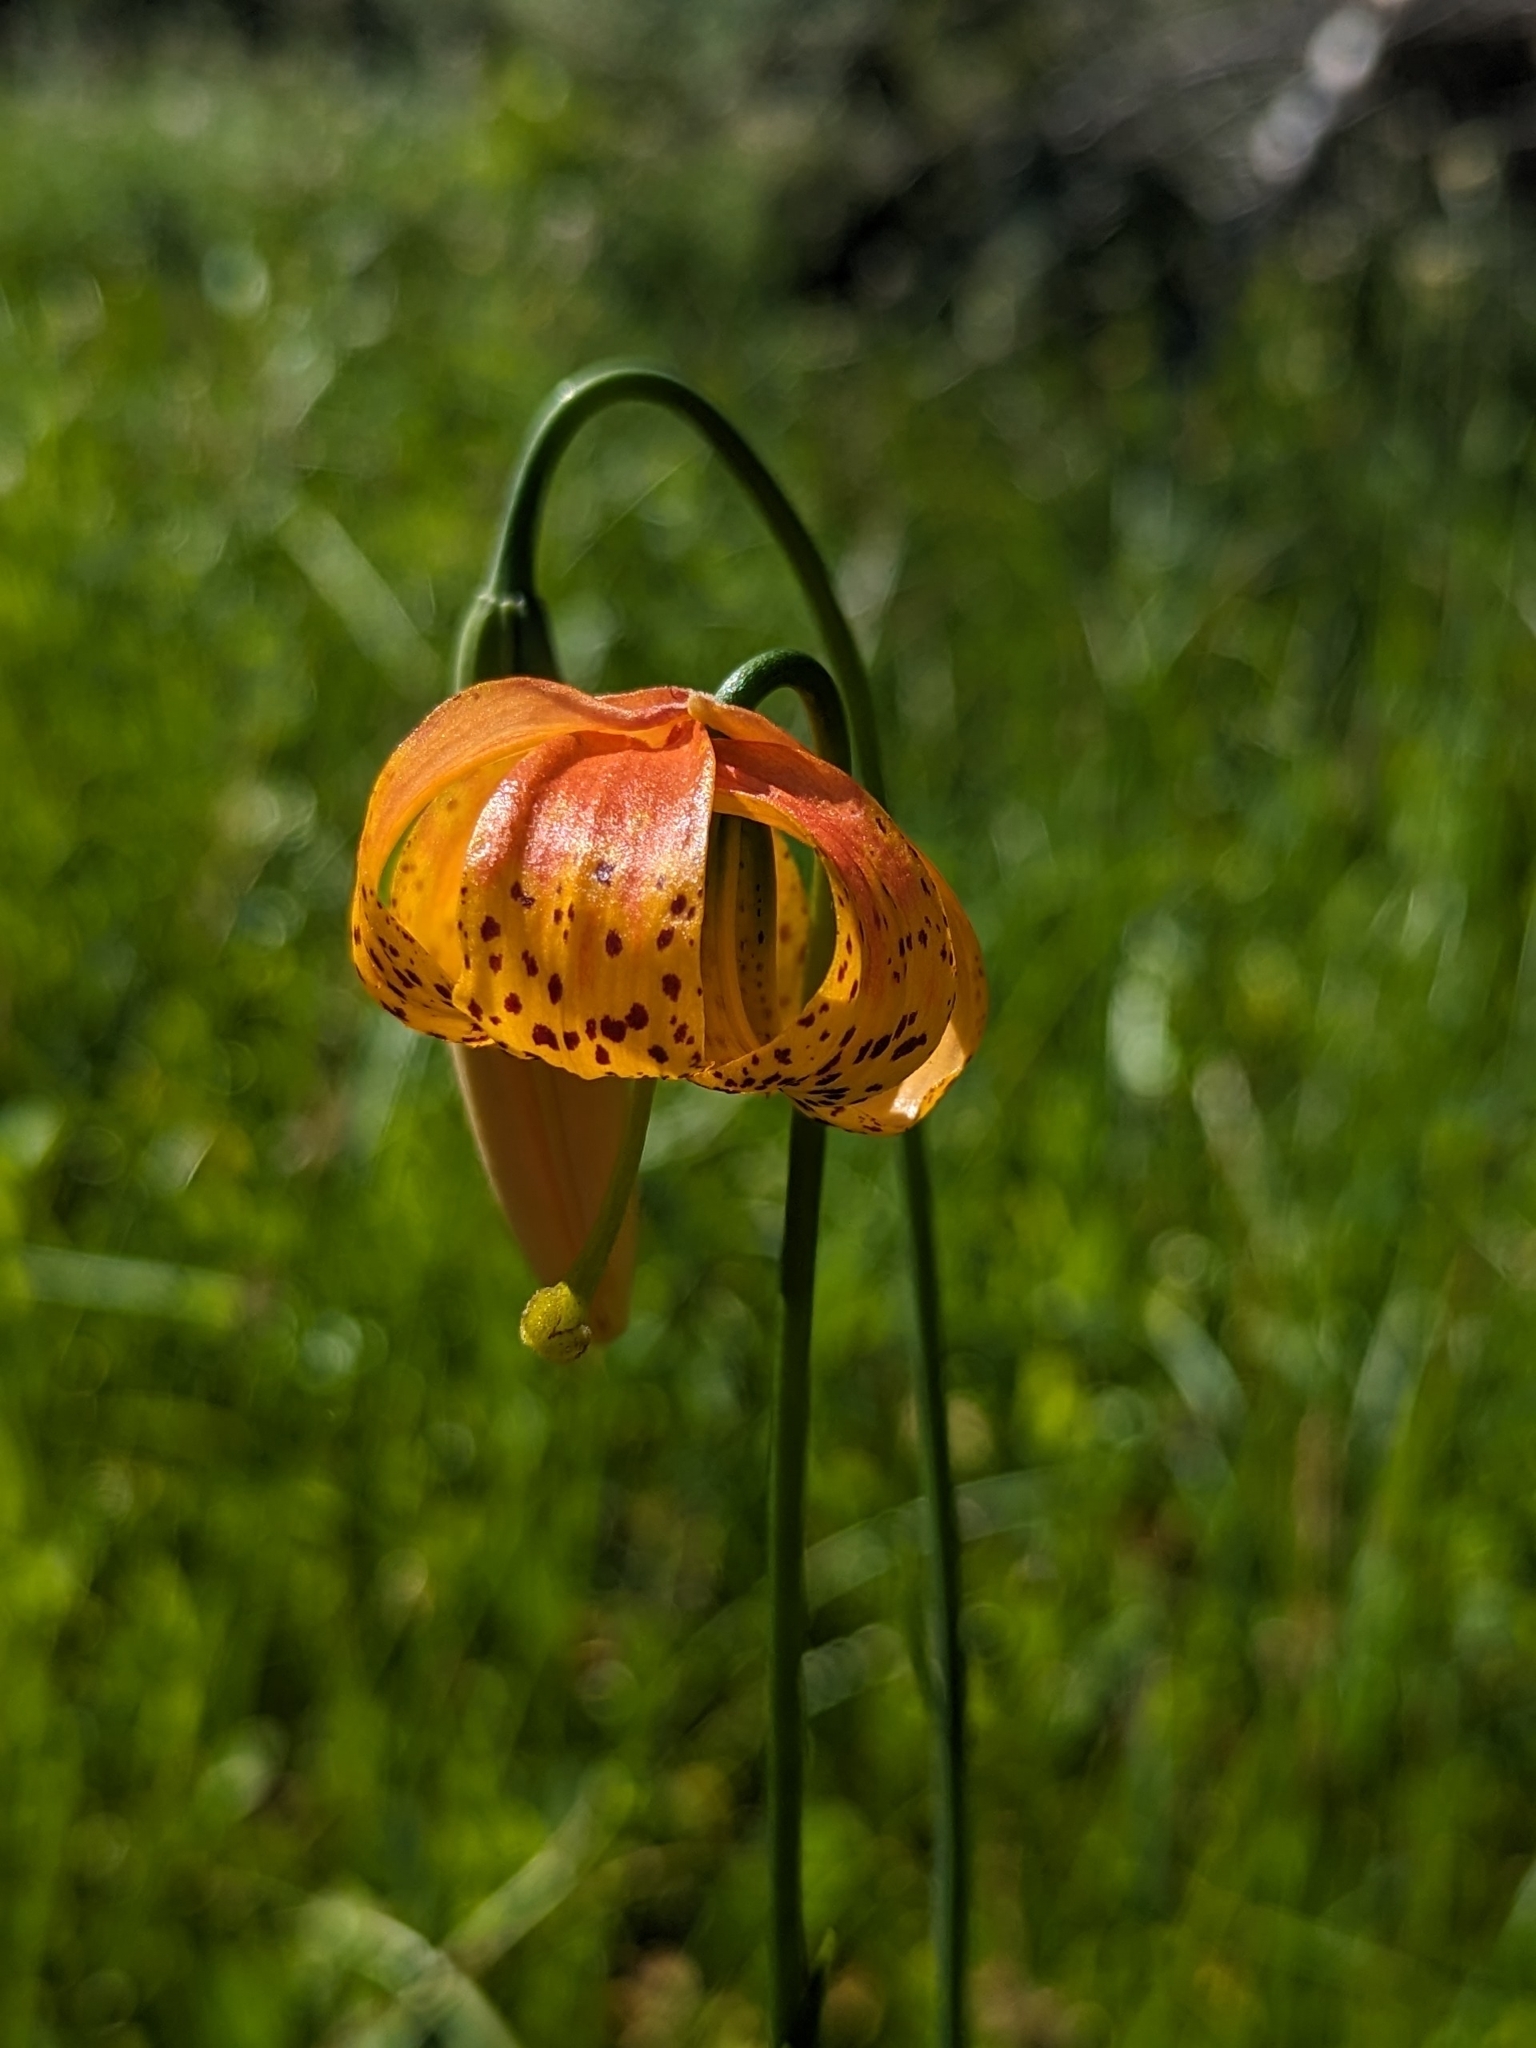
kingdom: Plantae
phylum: Tracheophyta
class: Liliopsida
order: Liliales
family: Liliaceae
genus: Lilium
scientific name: Lilium pardalinum
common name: Panther lily
